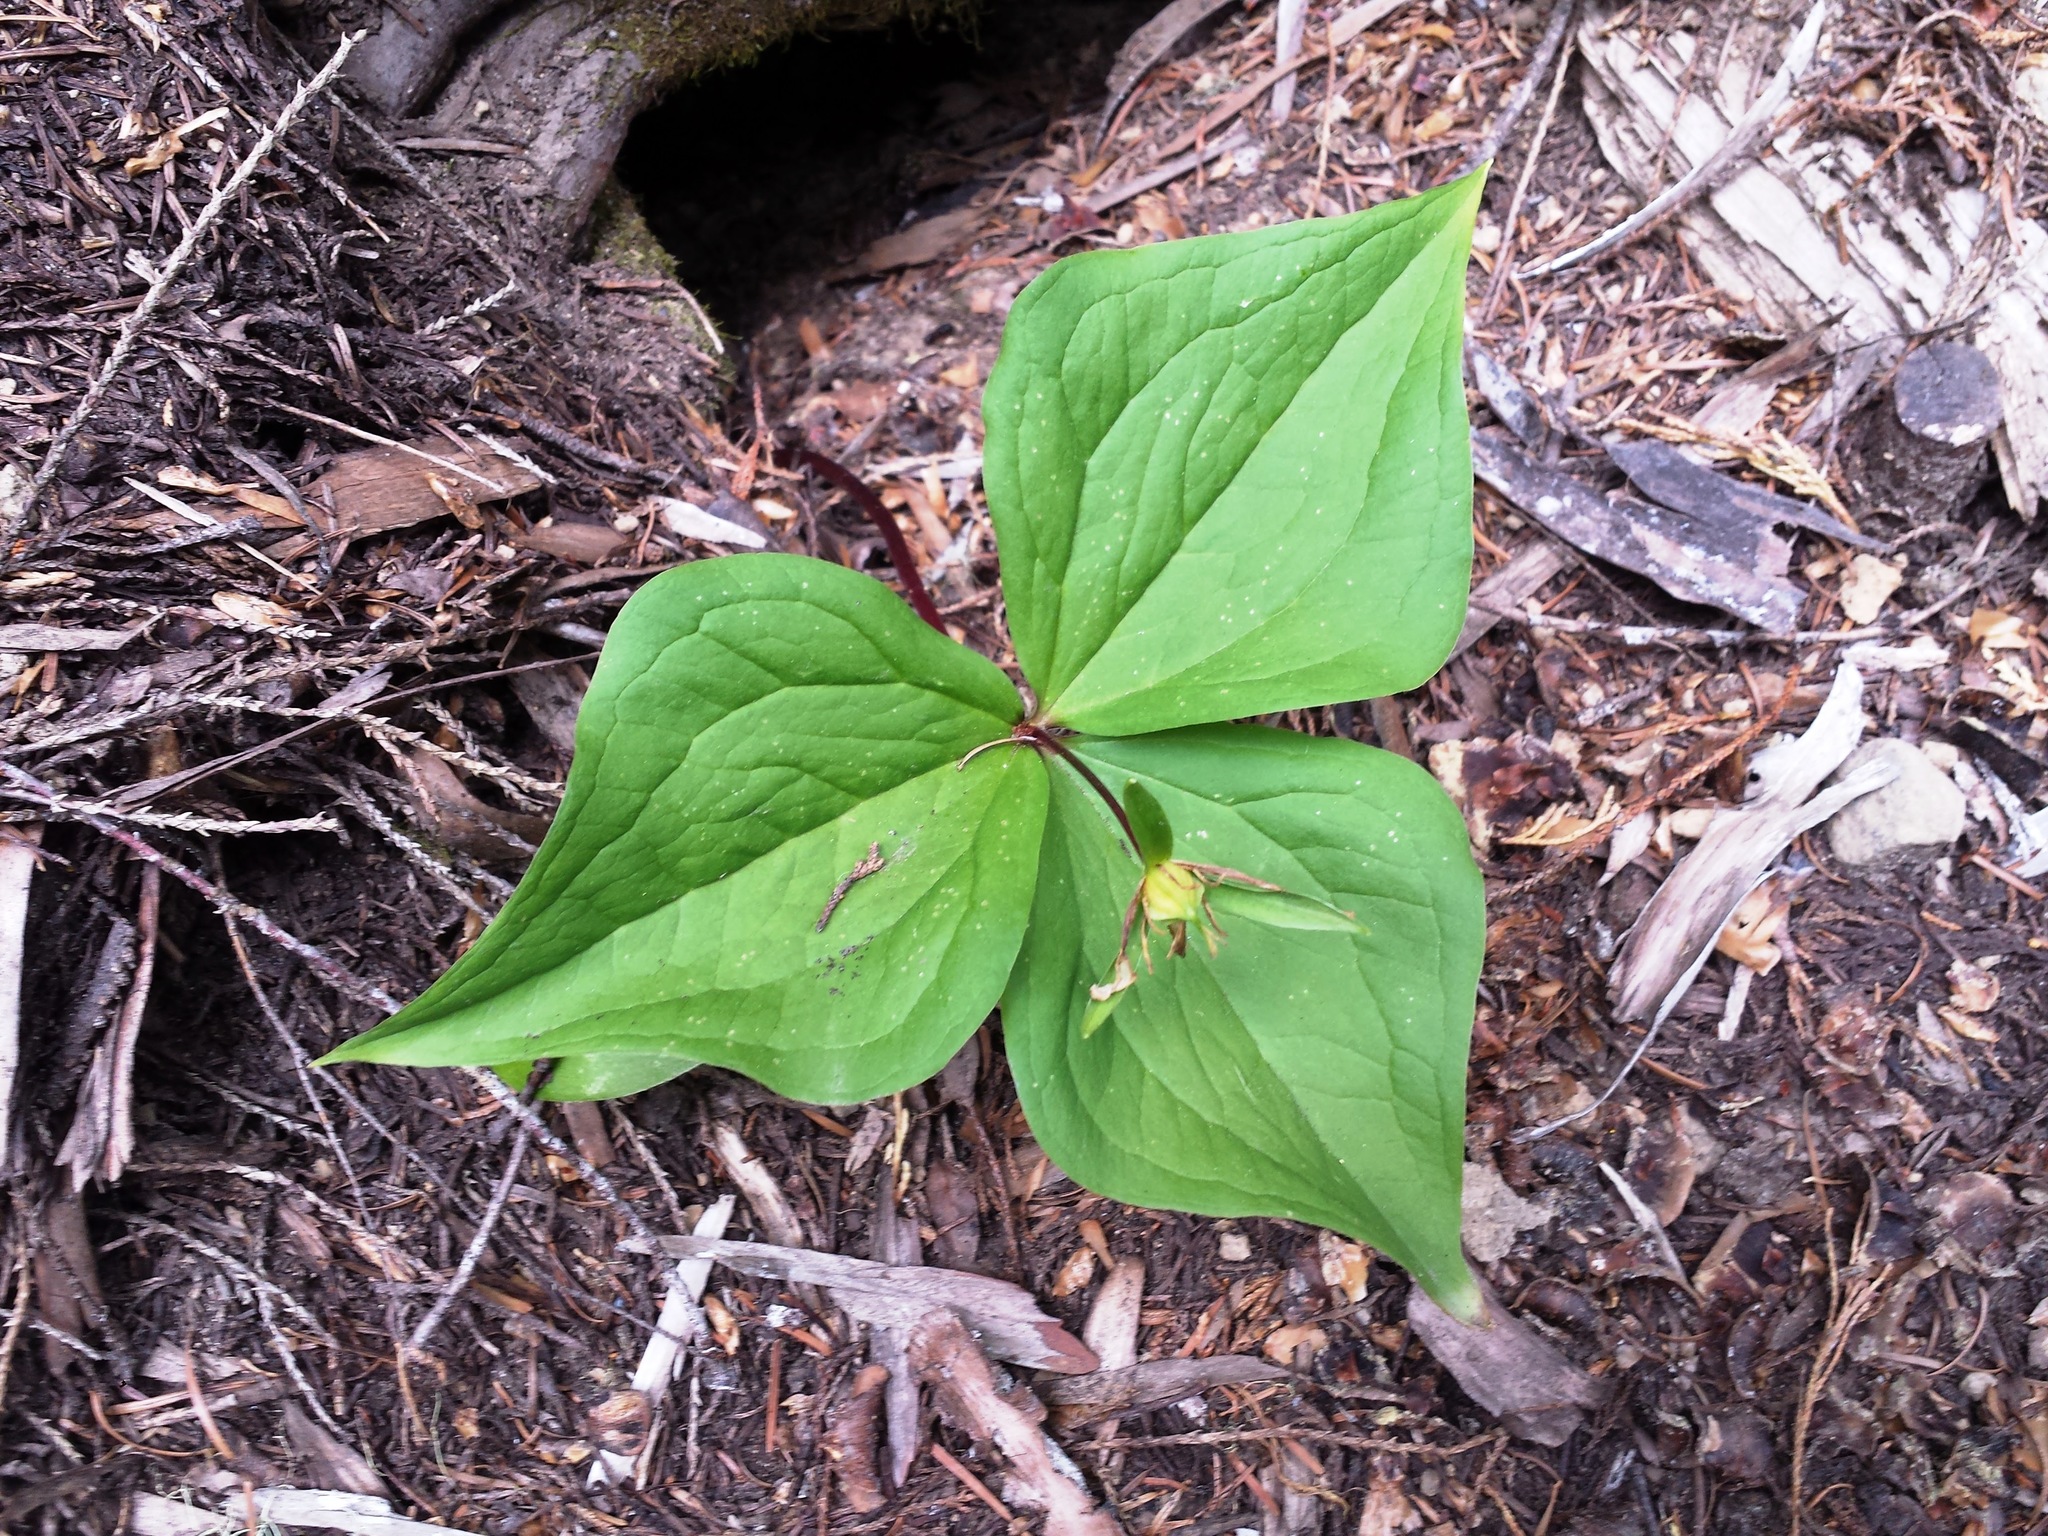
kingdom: Plantae
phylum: Tracheophyta
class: Liliopsida
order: Liliales
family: Melanthiaceae
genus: Trillium
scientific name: Trillium ovatum
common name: Pacific trillium
